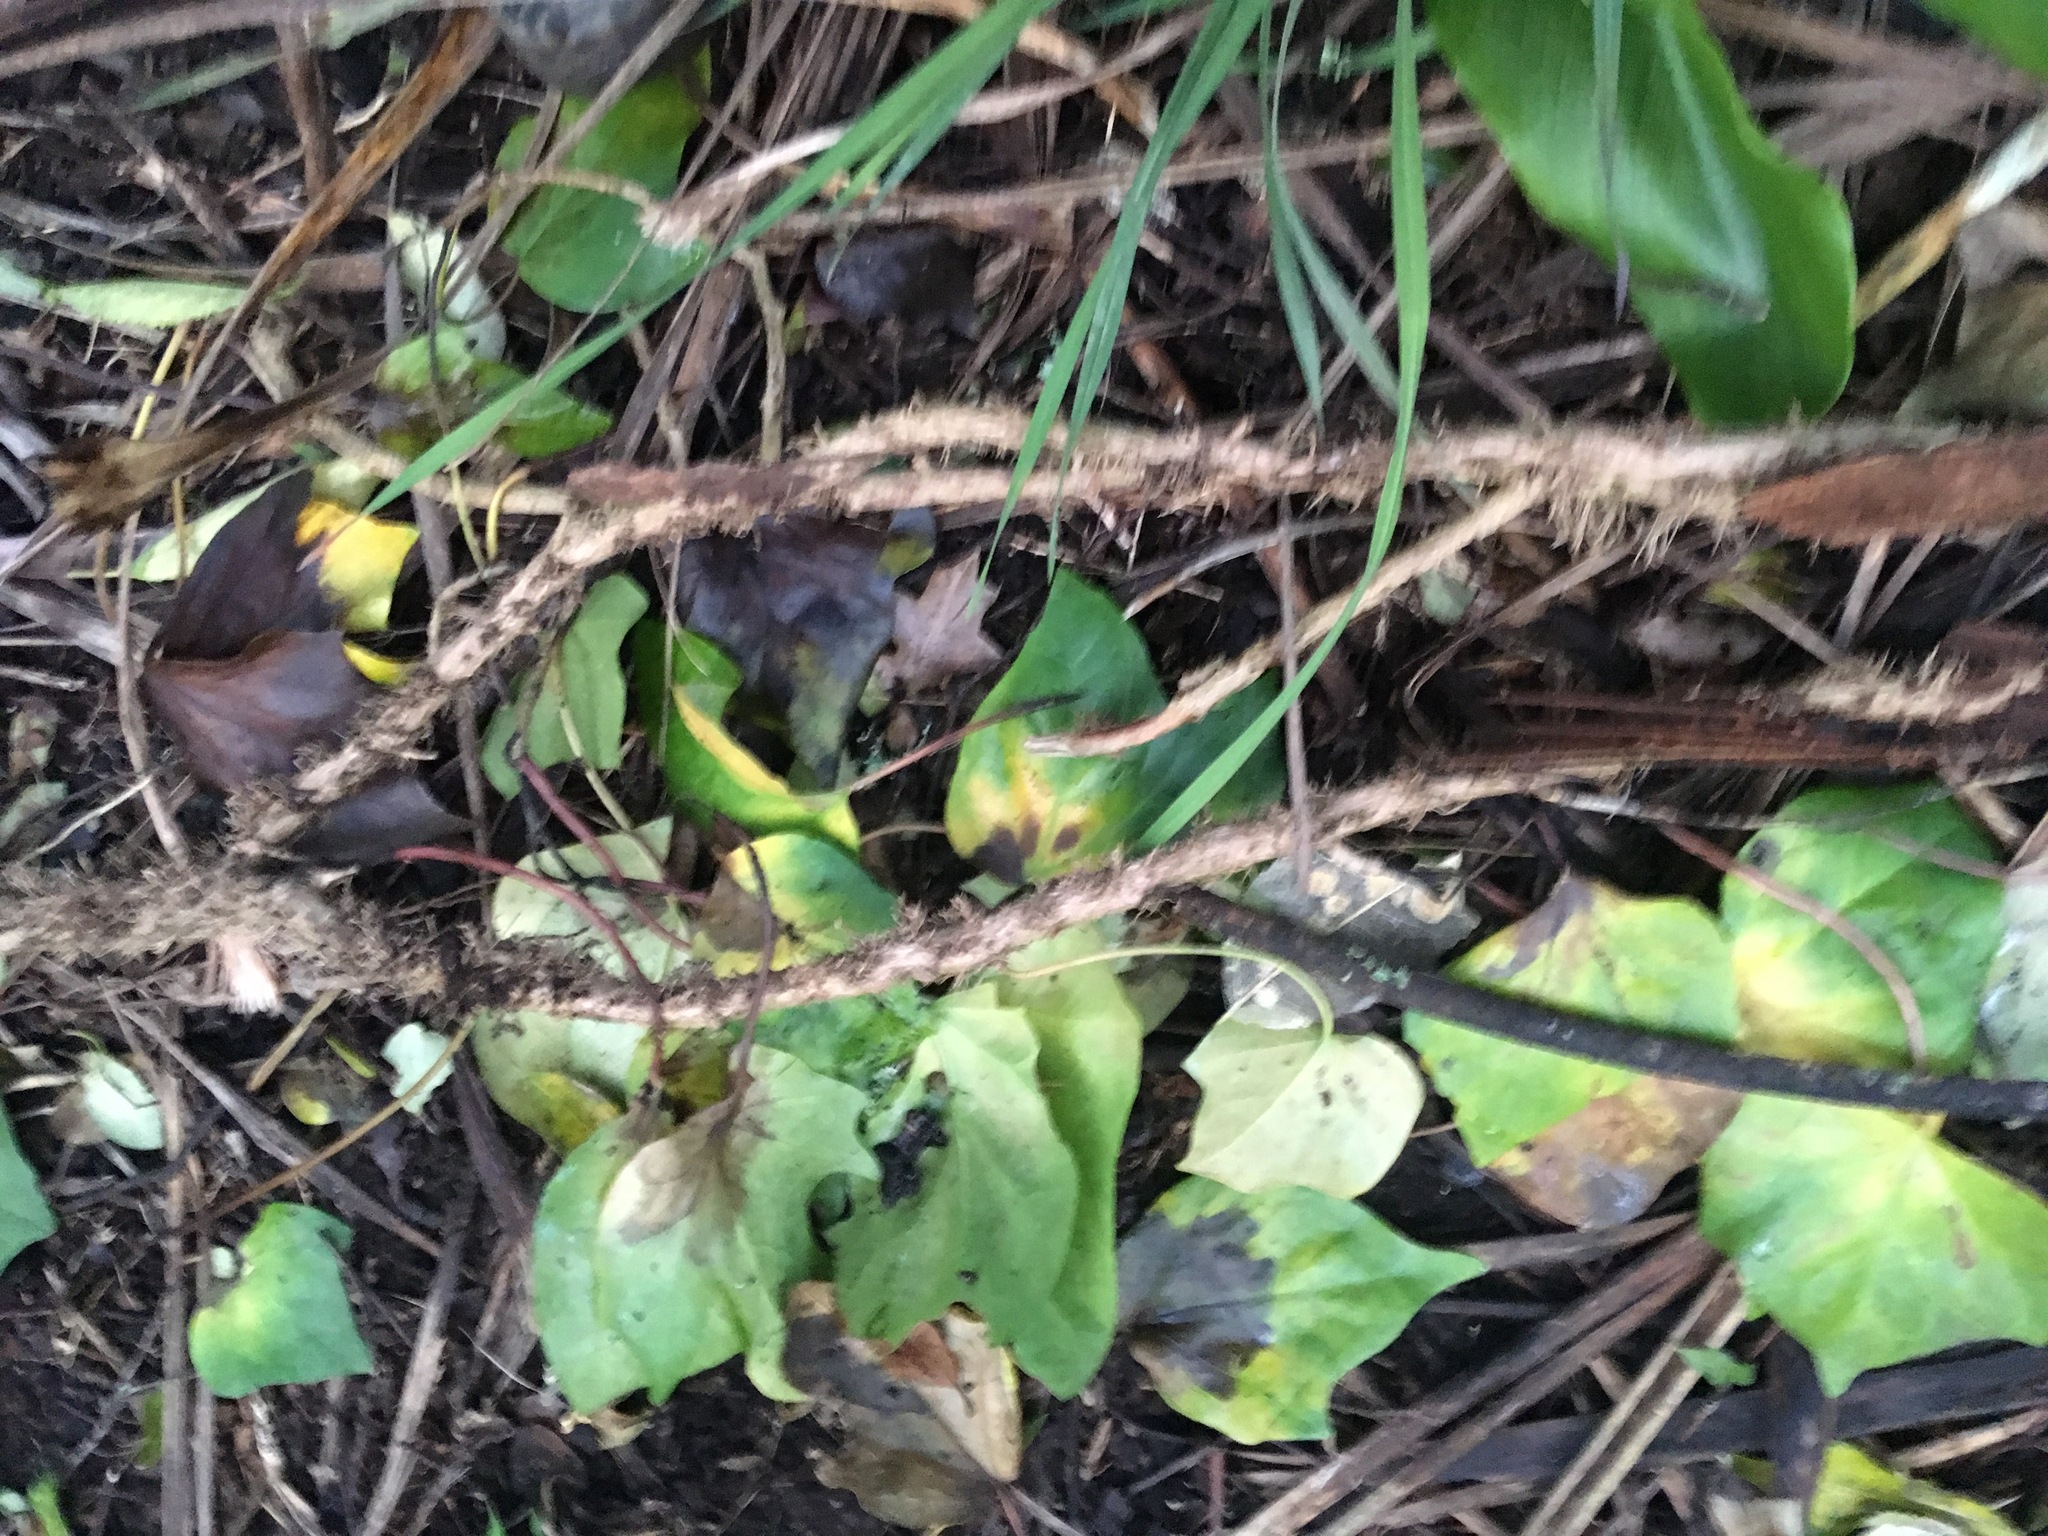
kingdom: Plantae
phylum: Tracheophyta
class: Magnoliopsida
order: Apiales
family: Araliaceae
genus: Hedera
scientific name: Hedera helix
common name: Ivy
